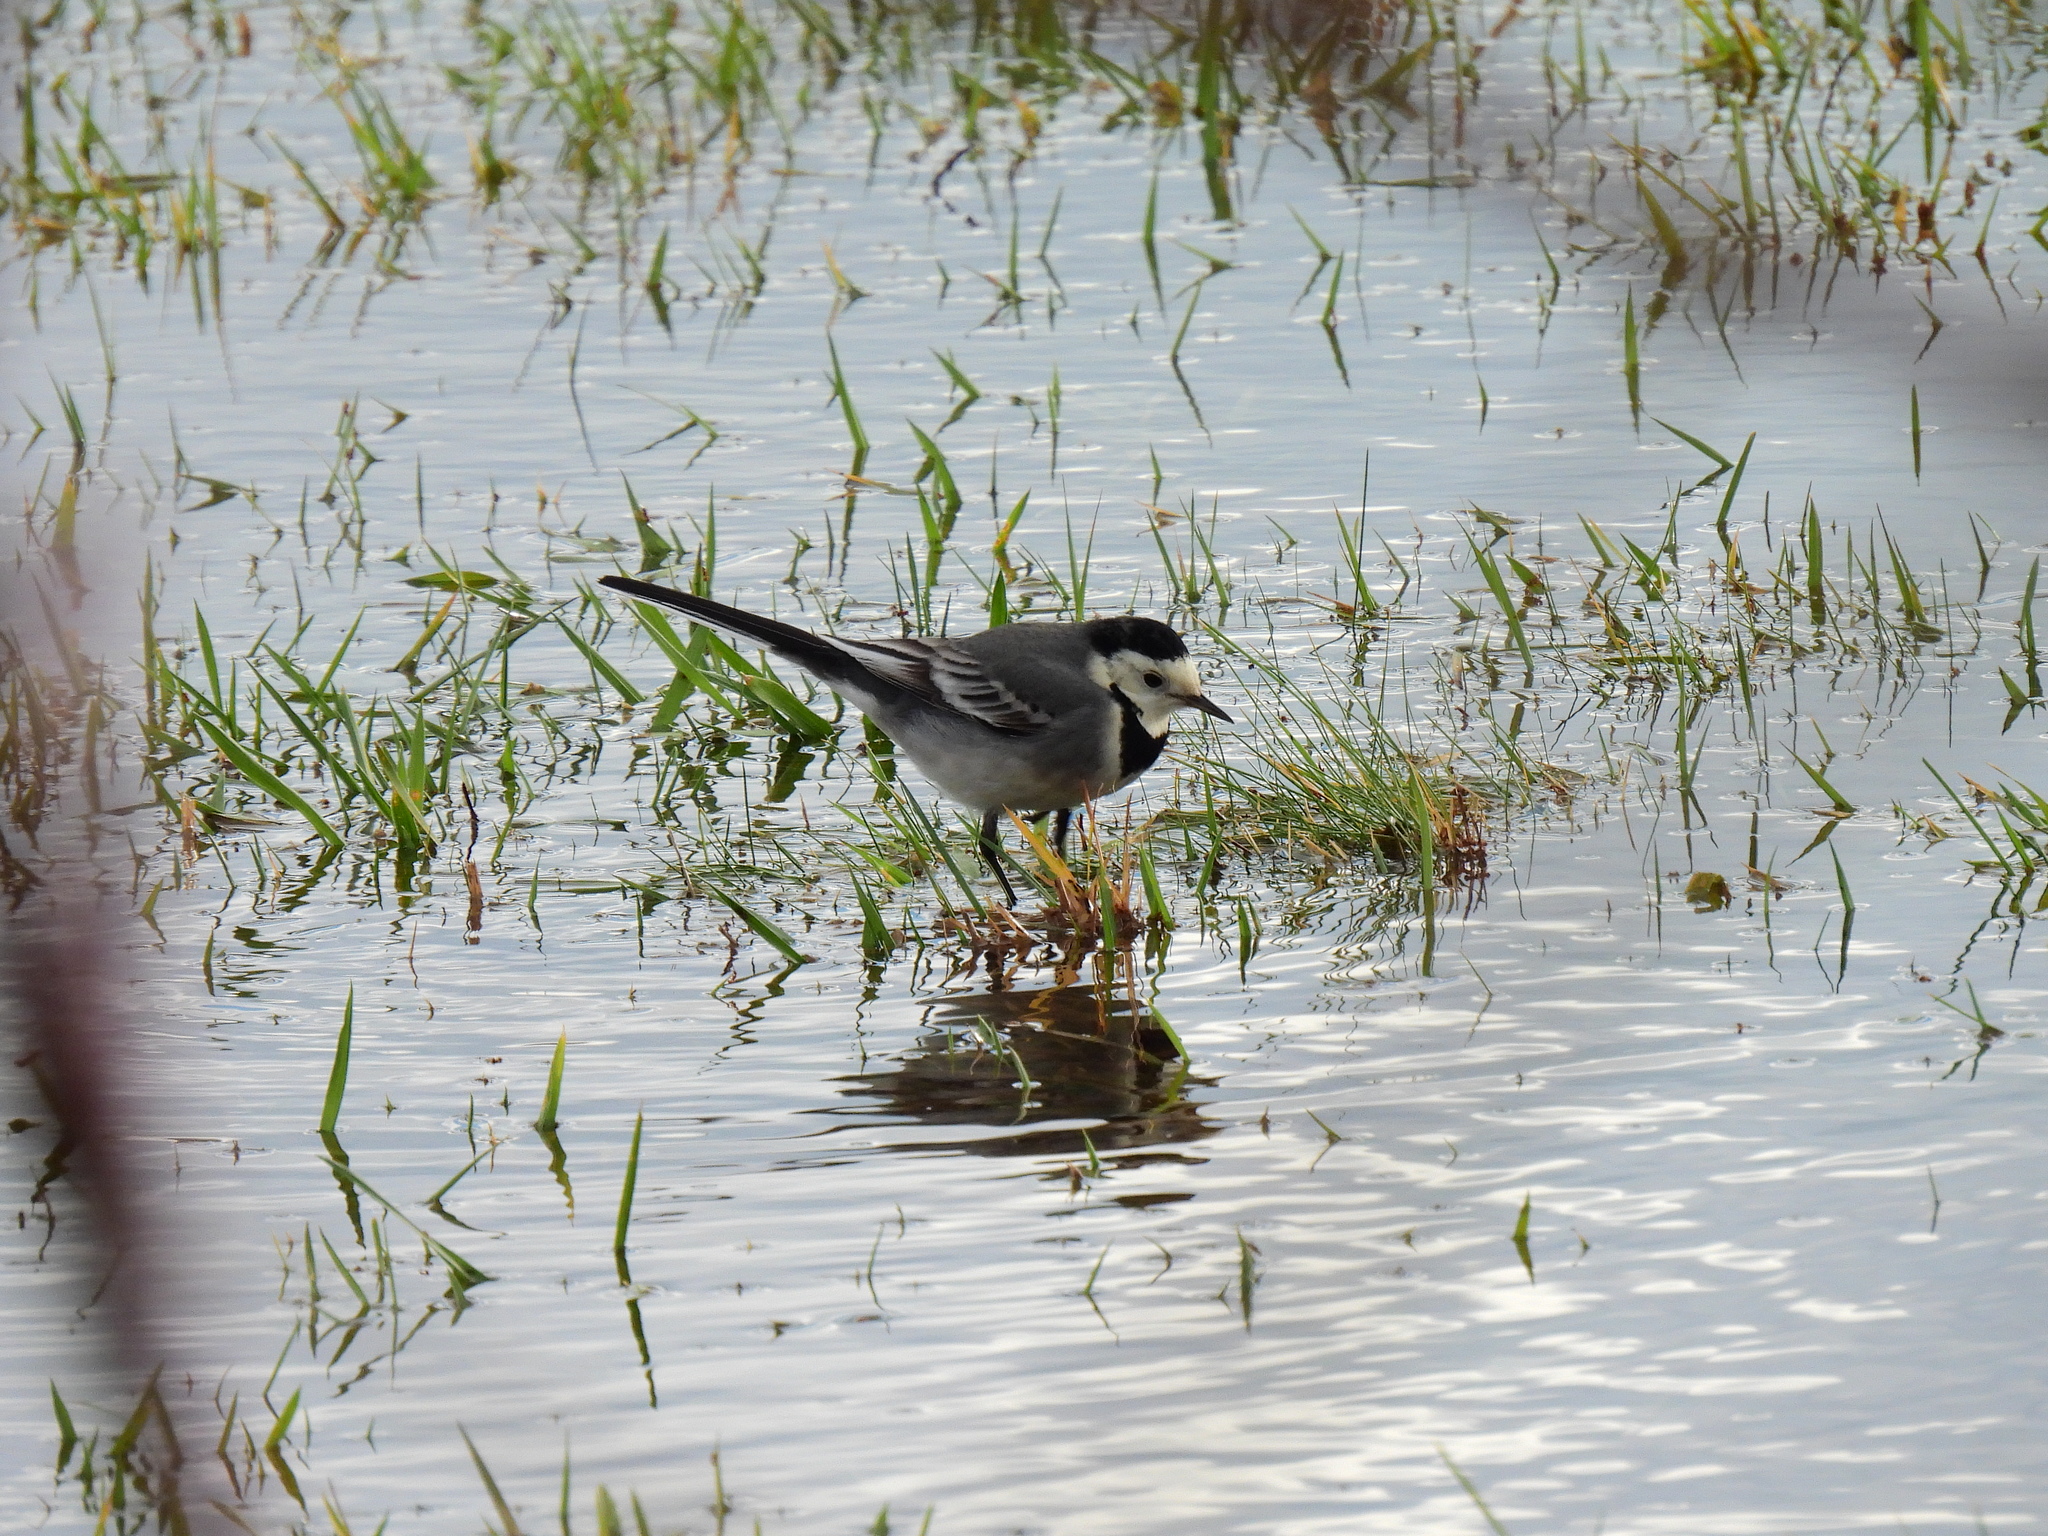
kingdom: Animalia
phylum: Chordata
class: Aves
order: Passeriformes
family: Motacillidae
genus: Motacilla
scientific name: Motacilla alba
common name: White wagtail
